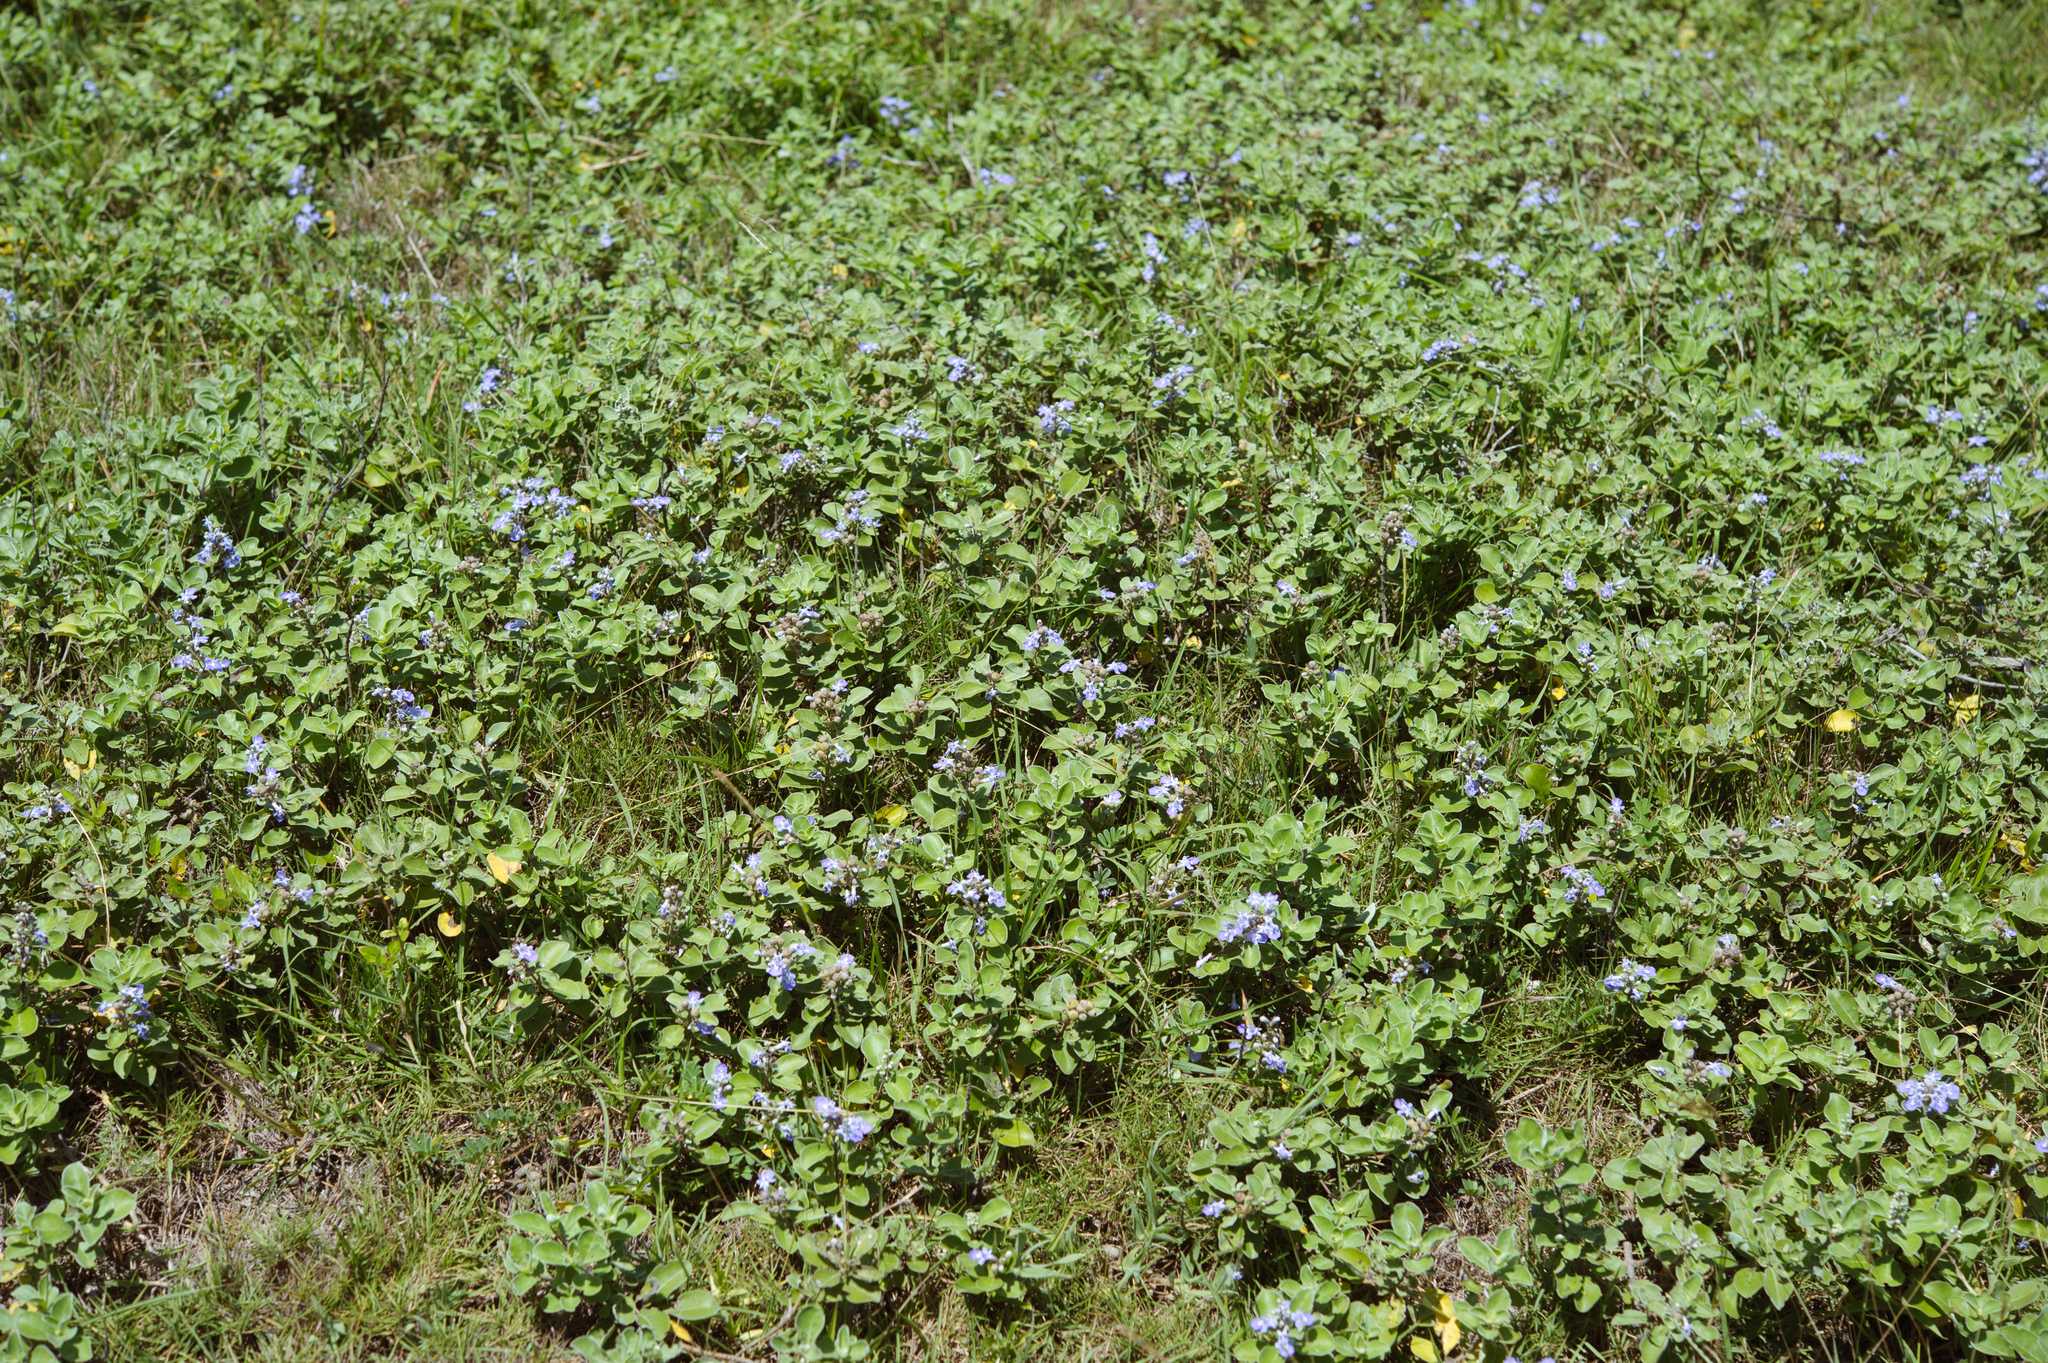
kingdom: Plantae
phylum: Tracheophyta
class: Magnoliopsida
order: Lamiales
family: Lamiaceae
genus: Vitex
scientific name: Vitex rotundifolia
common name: Beach vitex
